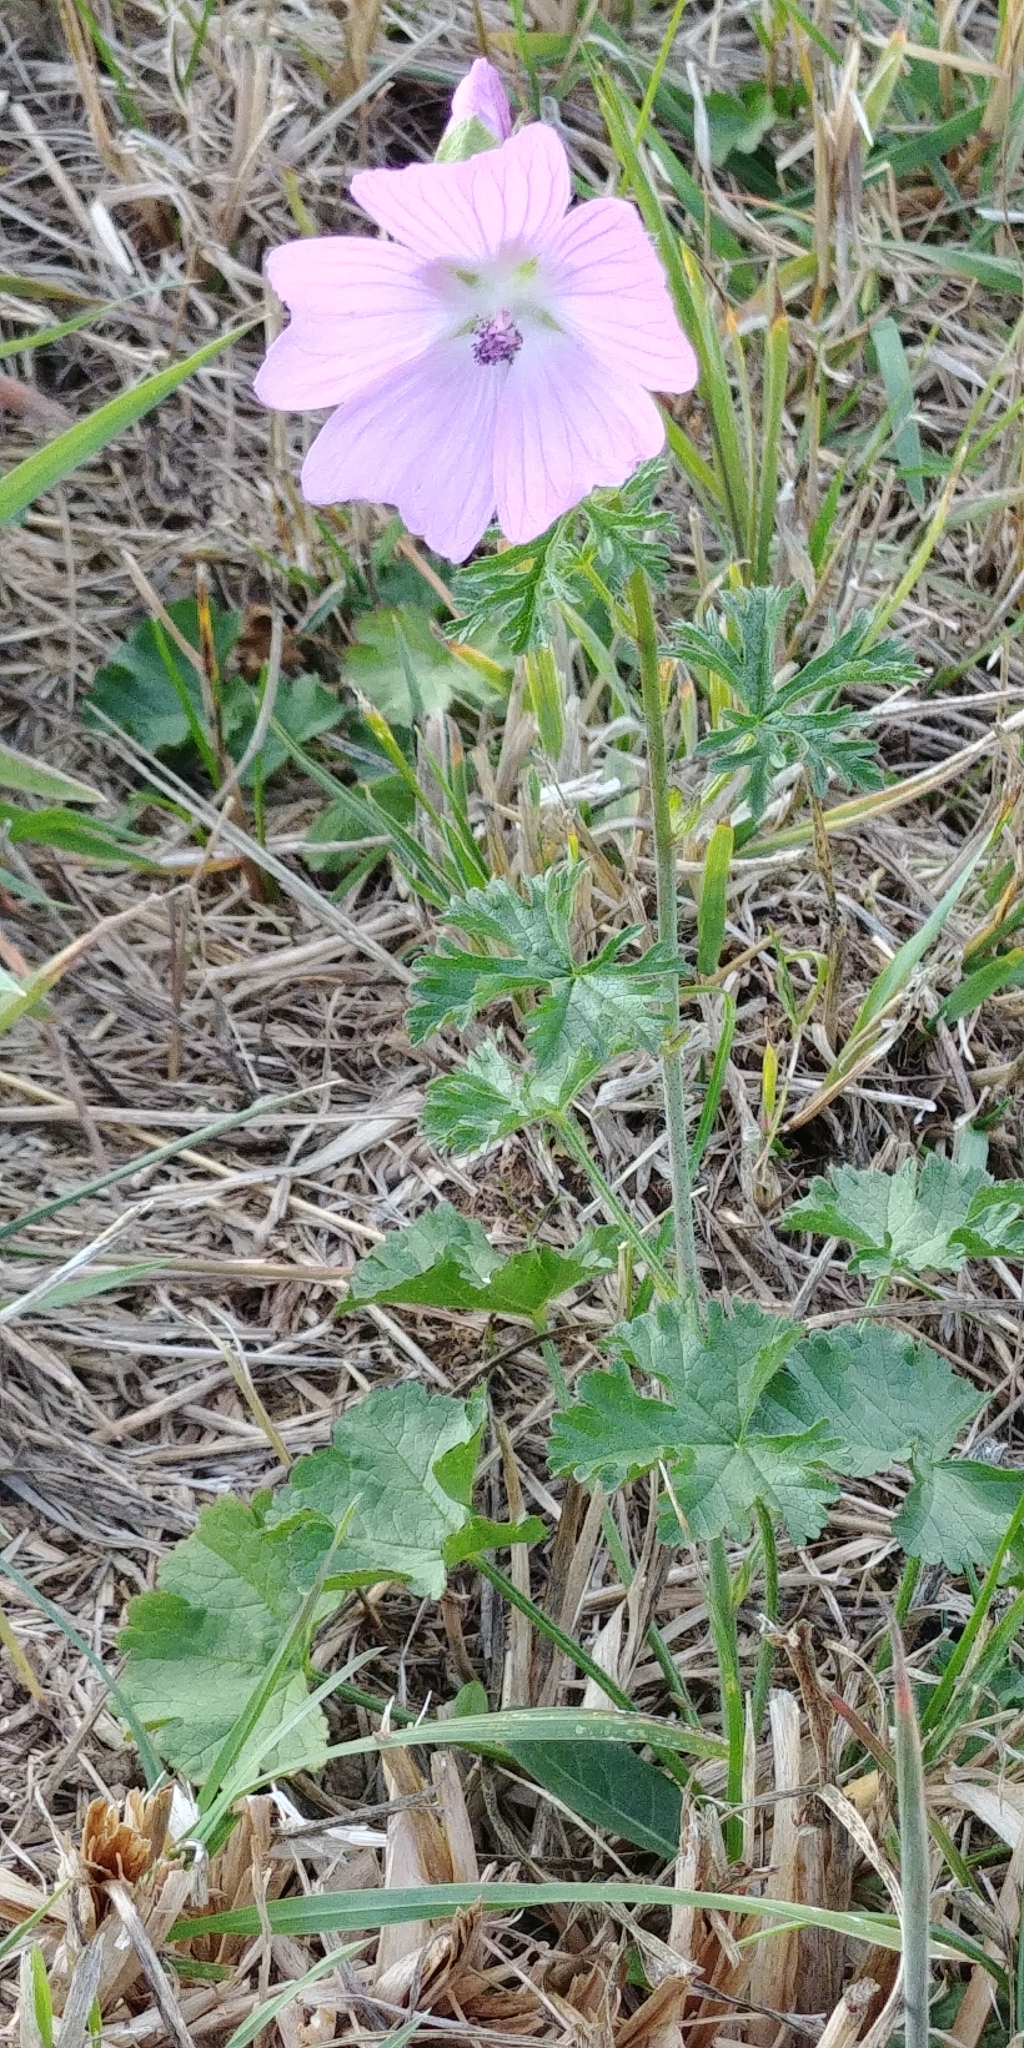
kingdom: Plantae
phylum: Tracheophyta
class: Magnoliopsida
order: Malvales
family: Malvaceae
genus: Malva
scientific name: Malva moschata
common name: Musk mallow
